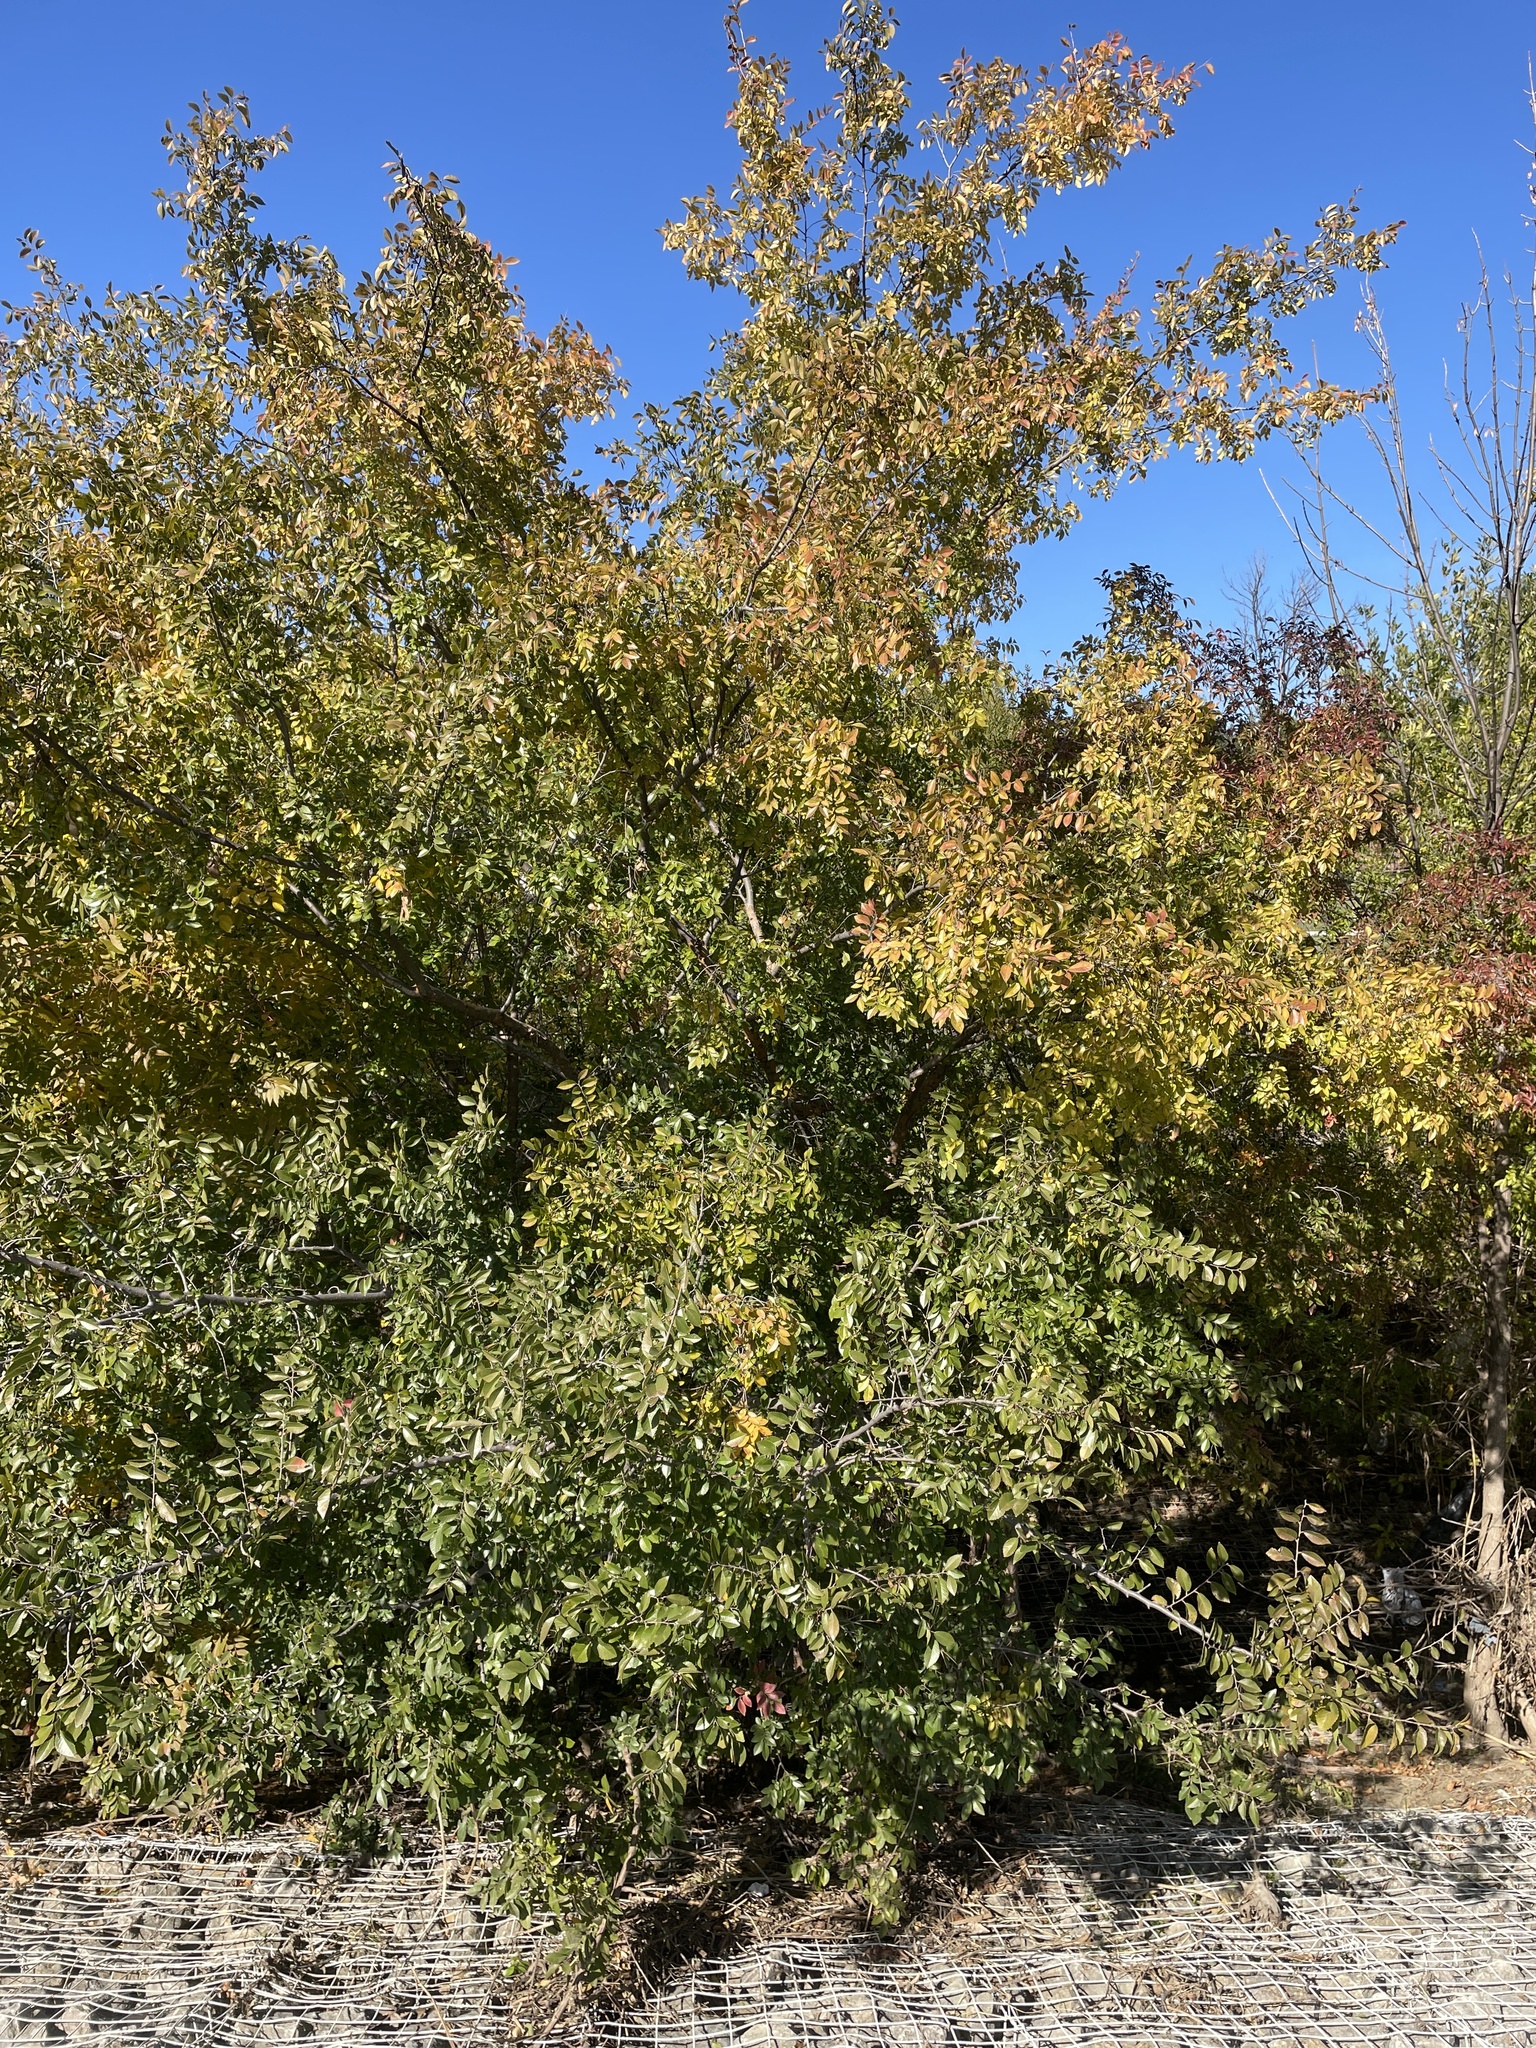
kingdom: Plantae
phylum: Tracheophyta
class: Magnoliopsida
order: Rosales
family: Ulmaceae
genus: Ulmus
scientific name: Ulmus parvifolia
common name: Chinese elm
